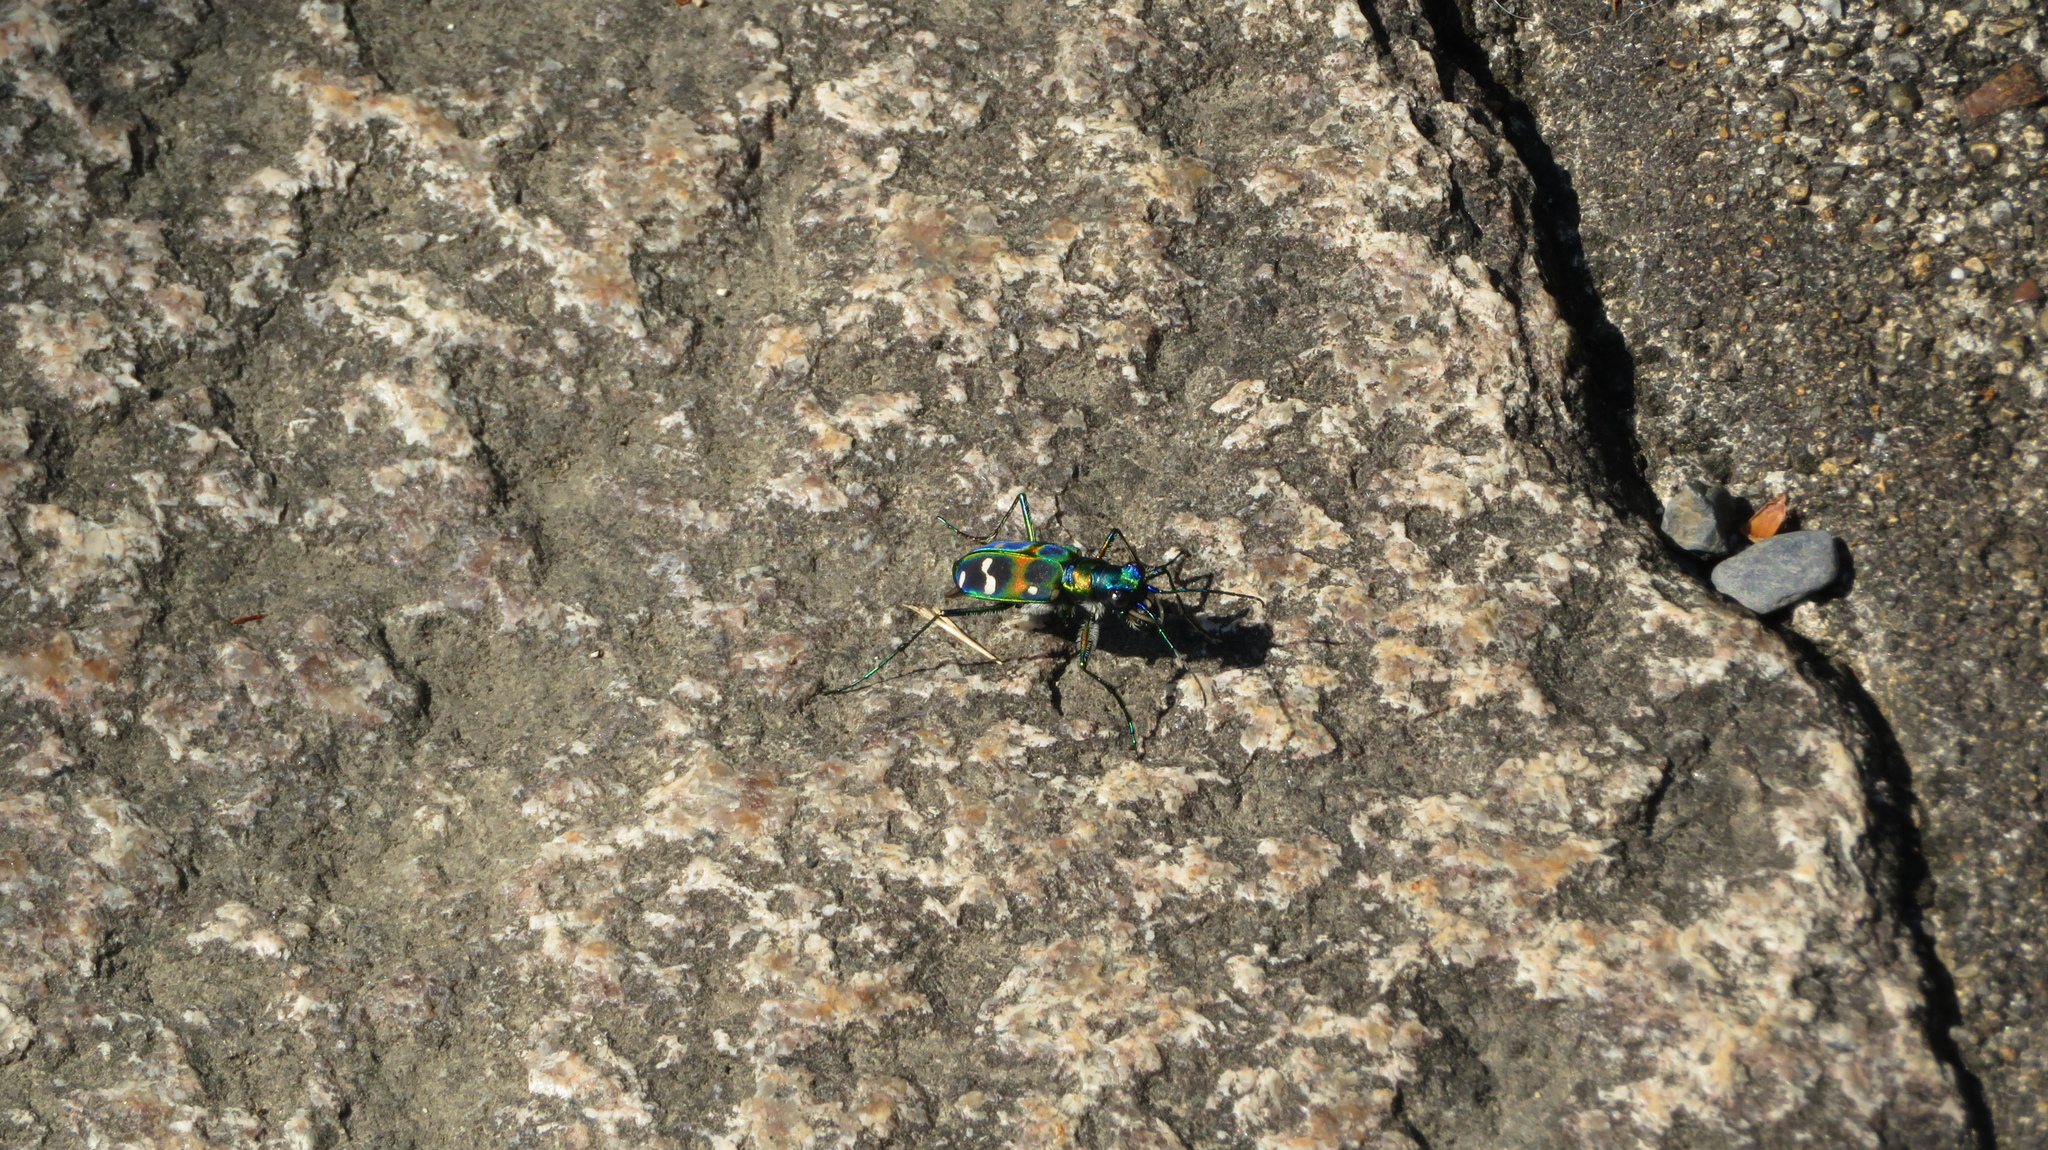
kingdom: Animalia
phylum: Arthropoda
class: Insecta
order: Coleoptera
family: Carabidae
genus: Cicindela
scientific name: Cicindela chinensis
